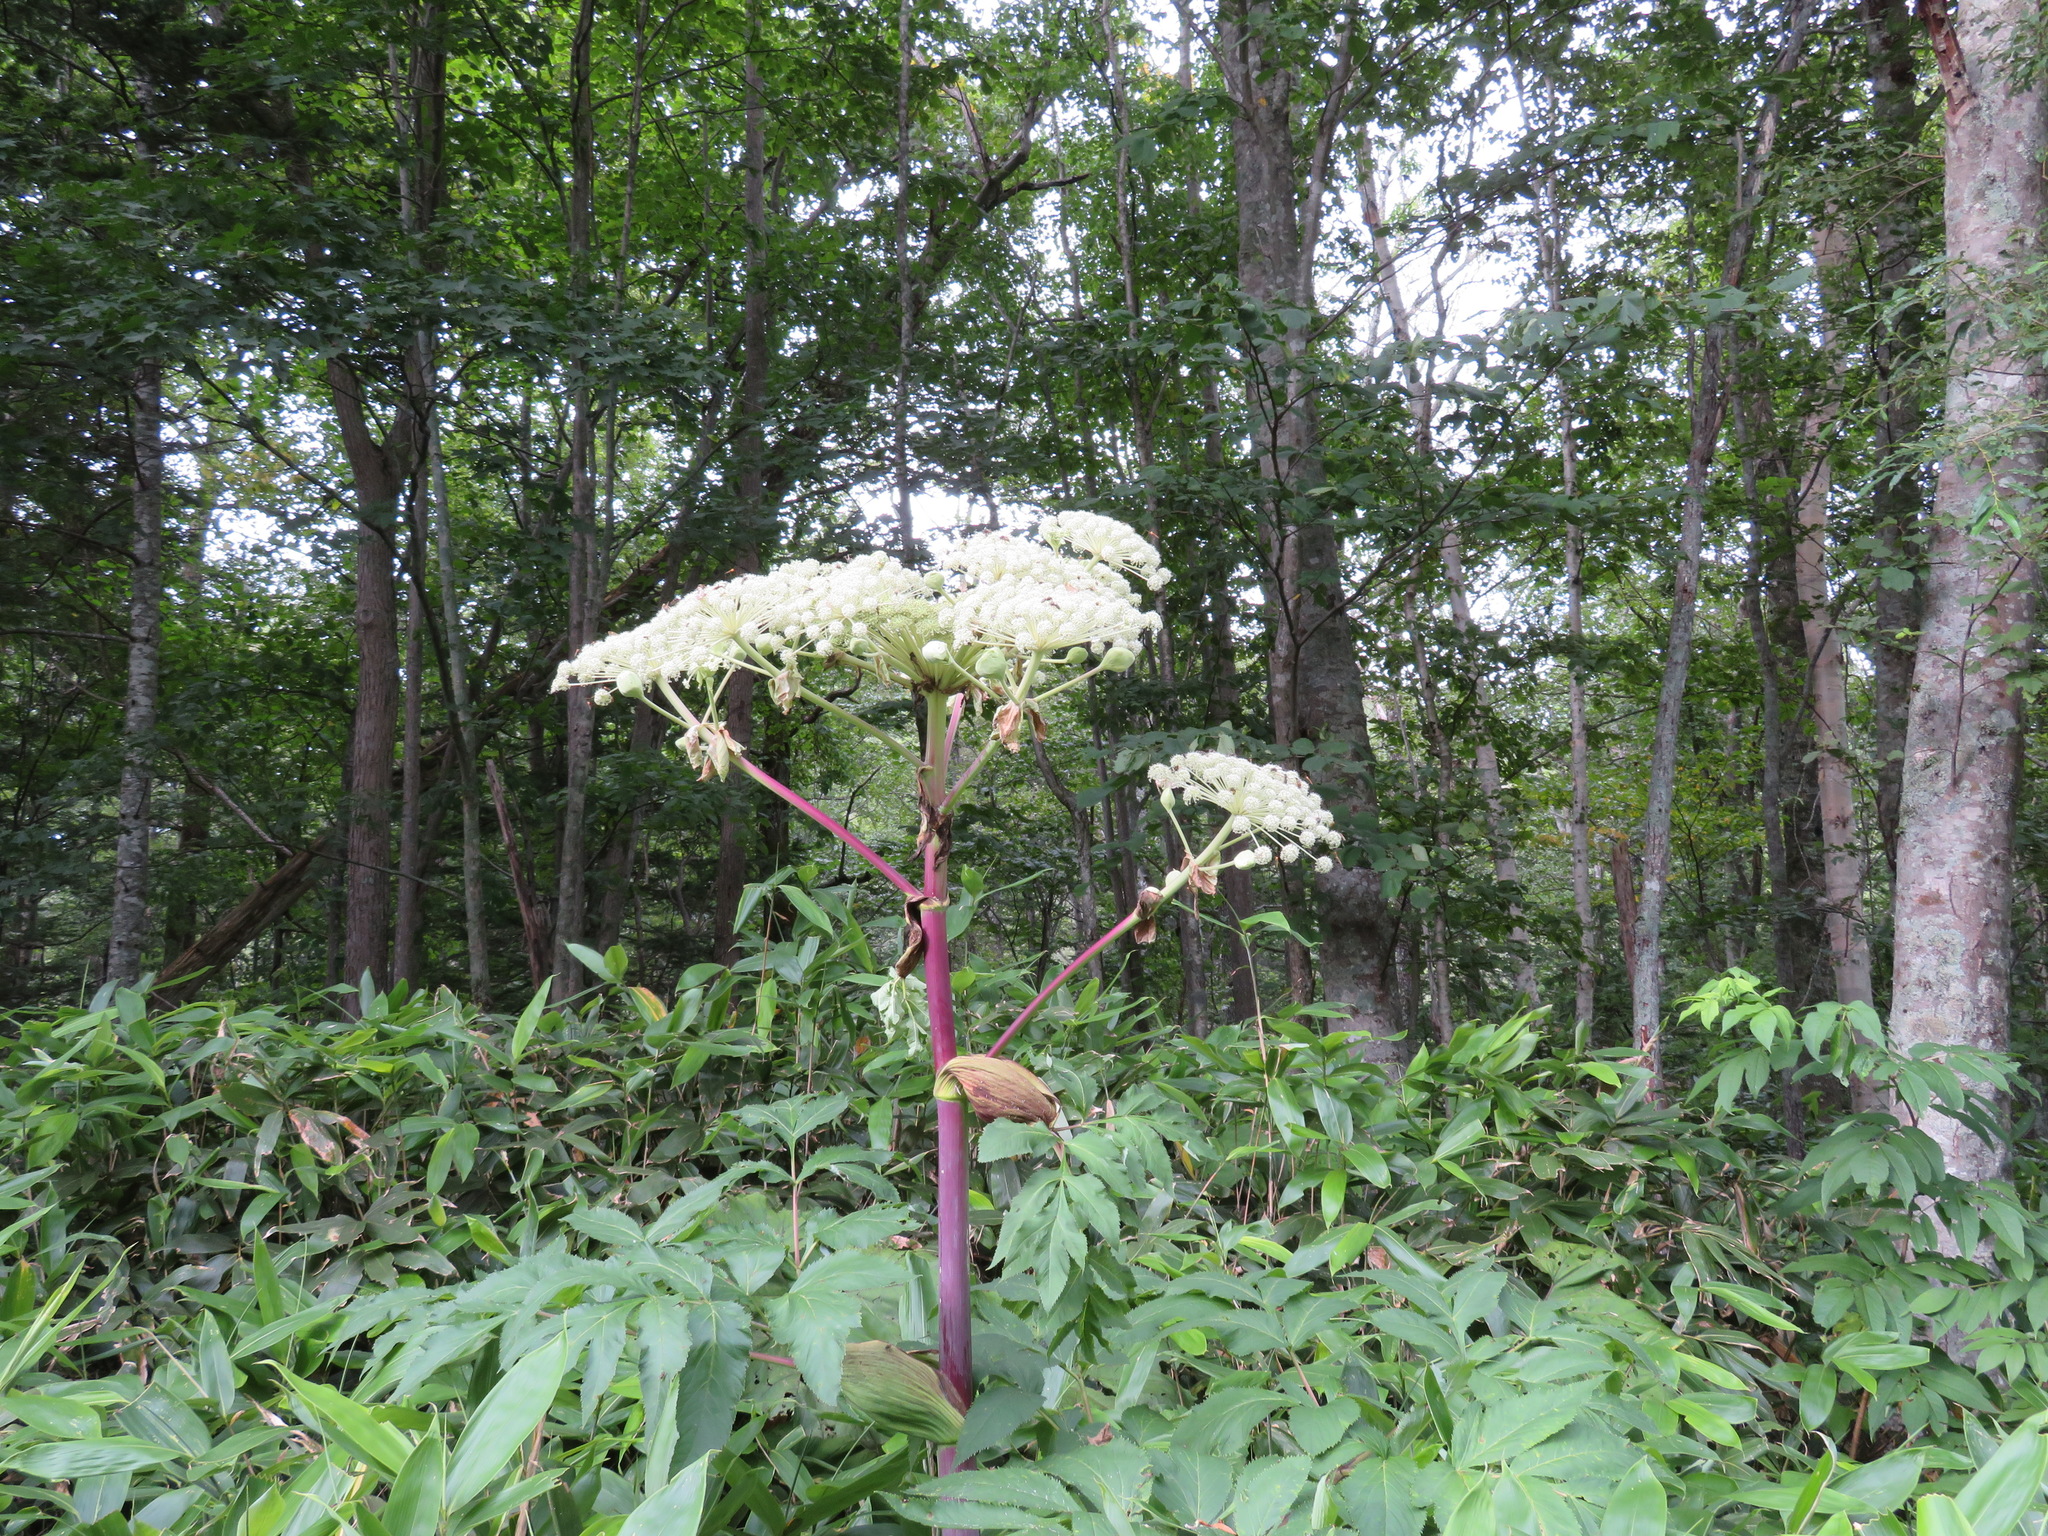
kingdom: Plantae
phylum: Tracheophyta
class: Magnoliopsida
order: Apiales
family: Apiaceae
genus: Angelica
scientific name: Angelica ursina
